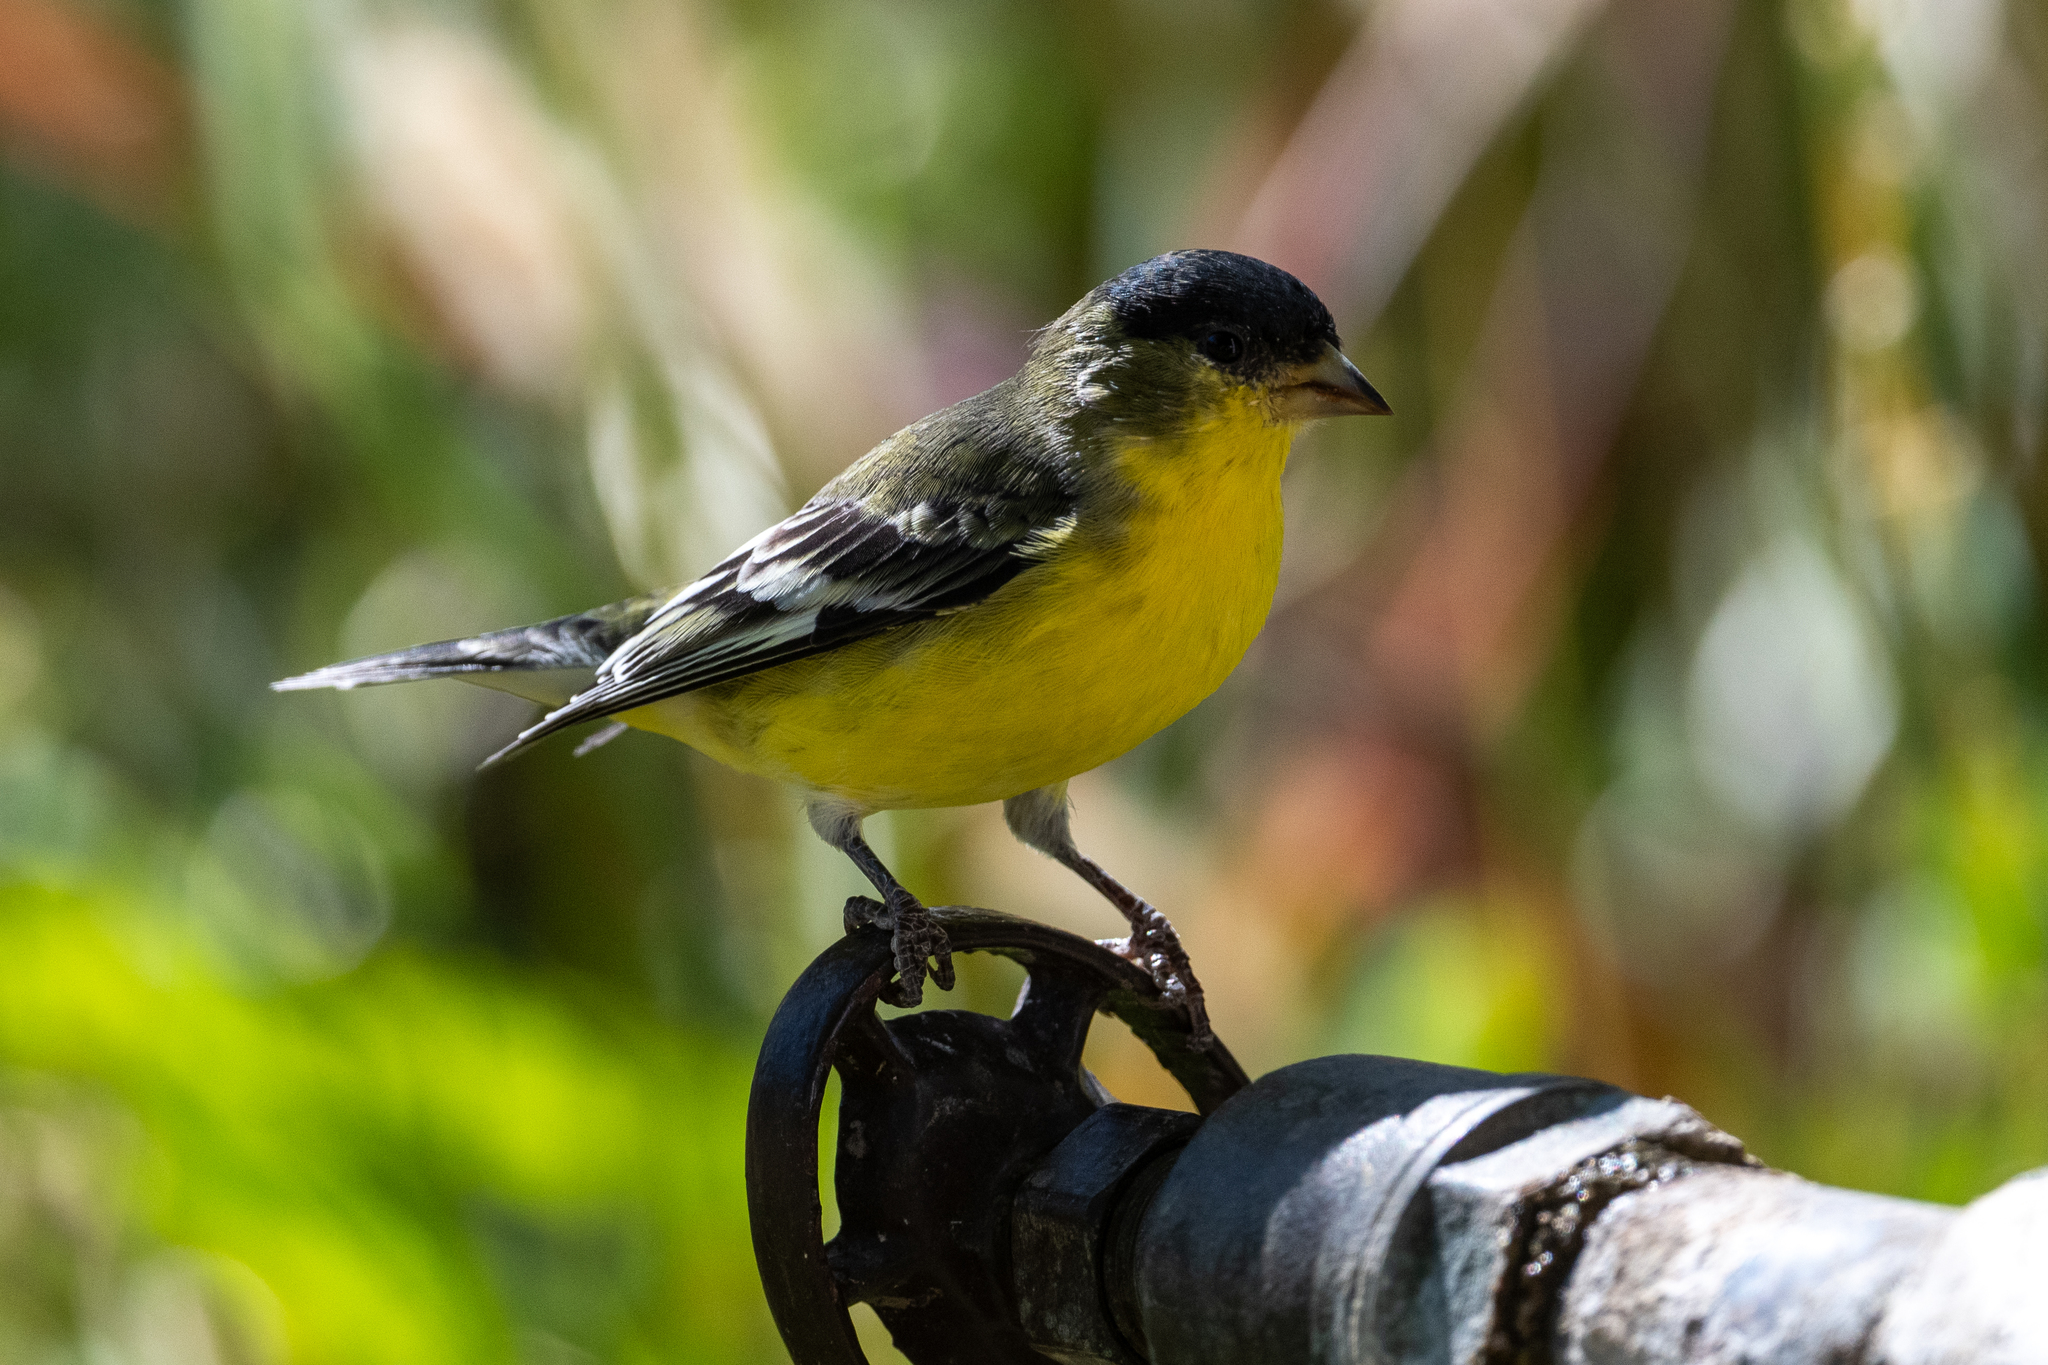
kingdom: Animalia
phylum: Chordata
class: Aves
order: Passeriformes
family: Fringillidae
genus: Spinus
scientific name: Spinus psaltria
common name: Lesser goldfinch
